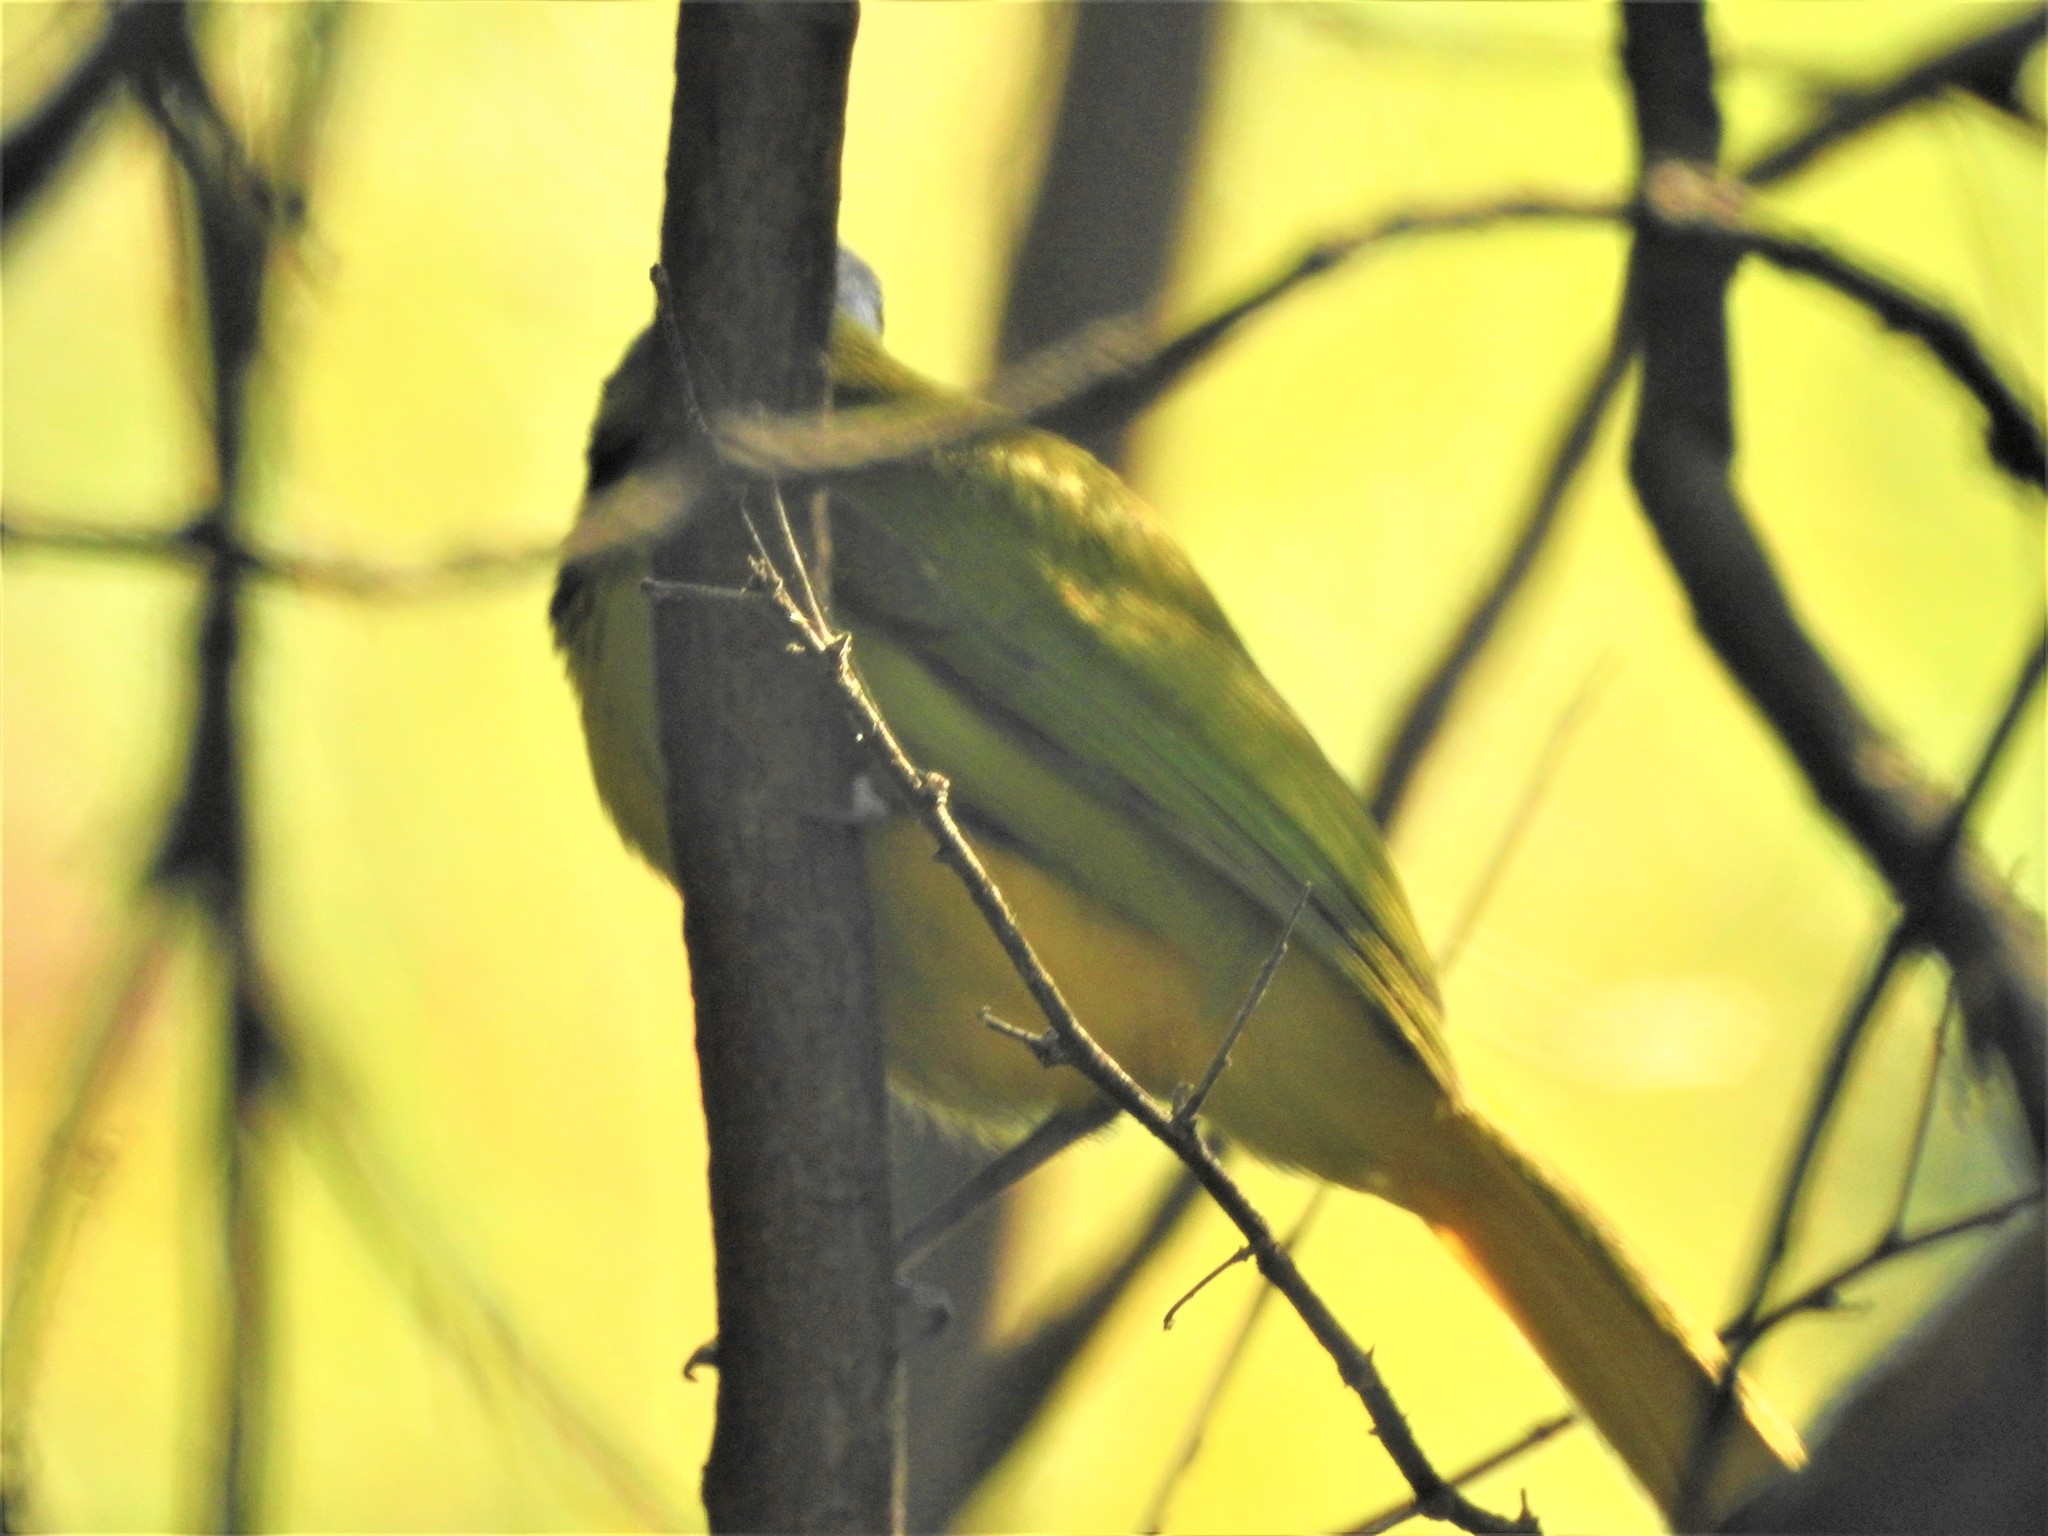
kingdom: Animalia
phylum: Chordata
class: Aves
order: Passeriformes
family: Corvidae
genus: Cyanocorax
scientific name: Cyanocorax yncas
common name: Green jay
